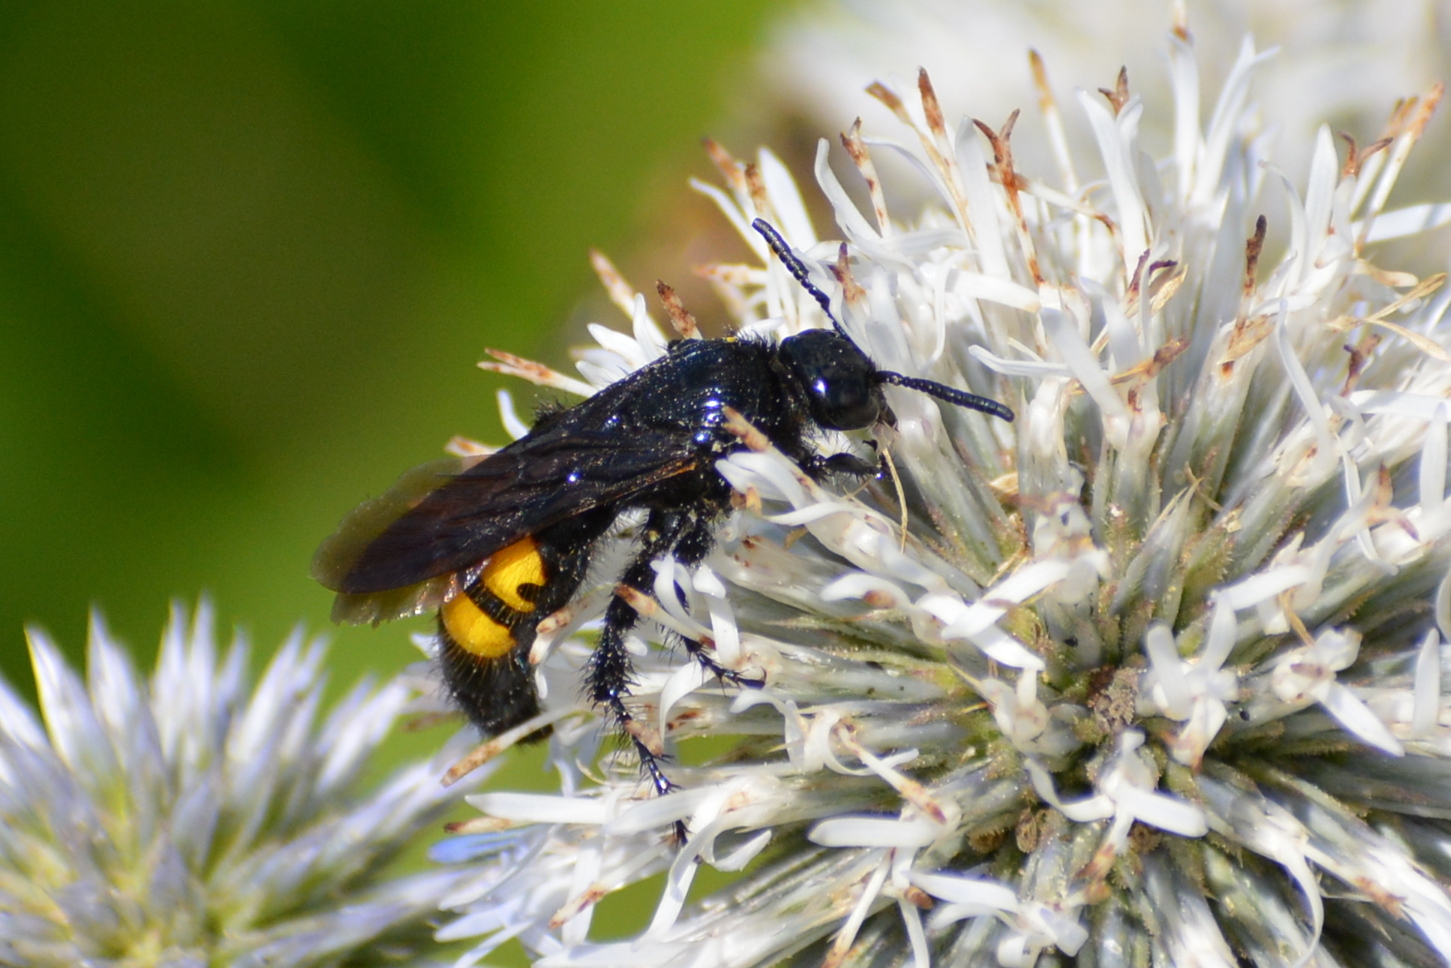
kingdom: Animalia
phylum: Arthropoda
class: Insecta
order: Hymenoptera
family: Scoliidae
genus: Scolia
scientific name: Scolia hirta
